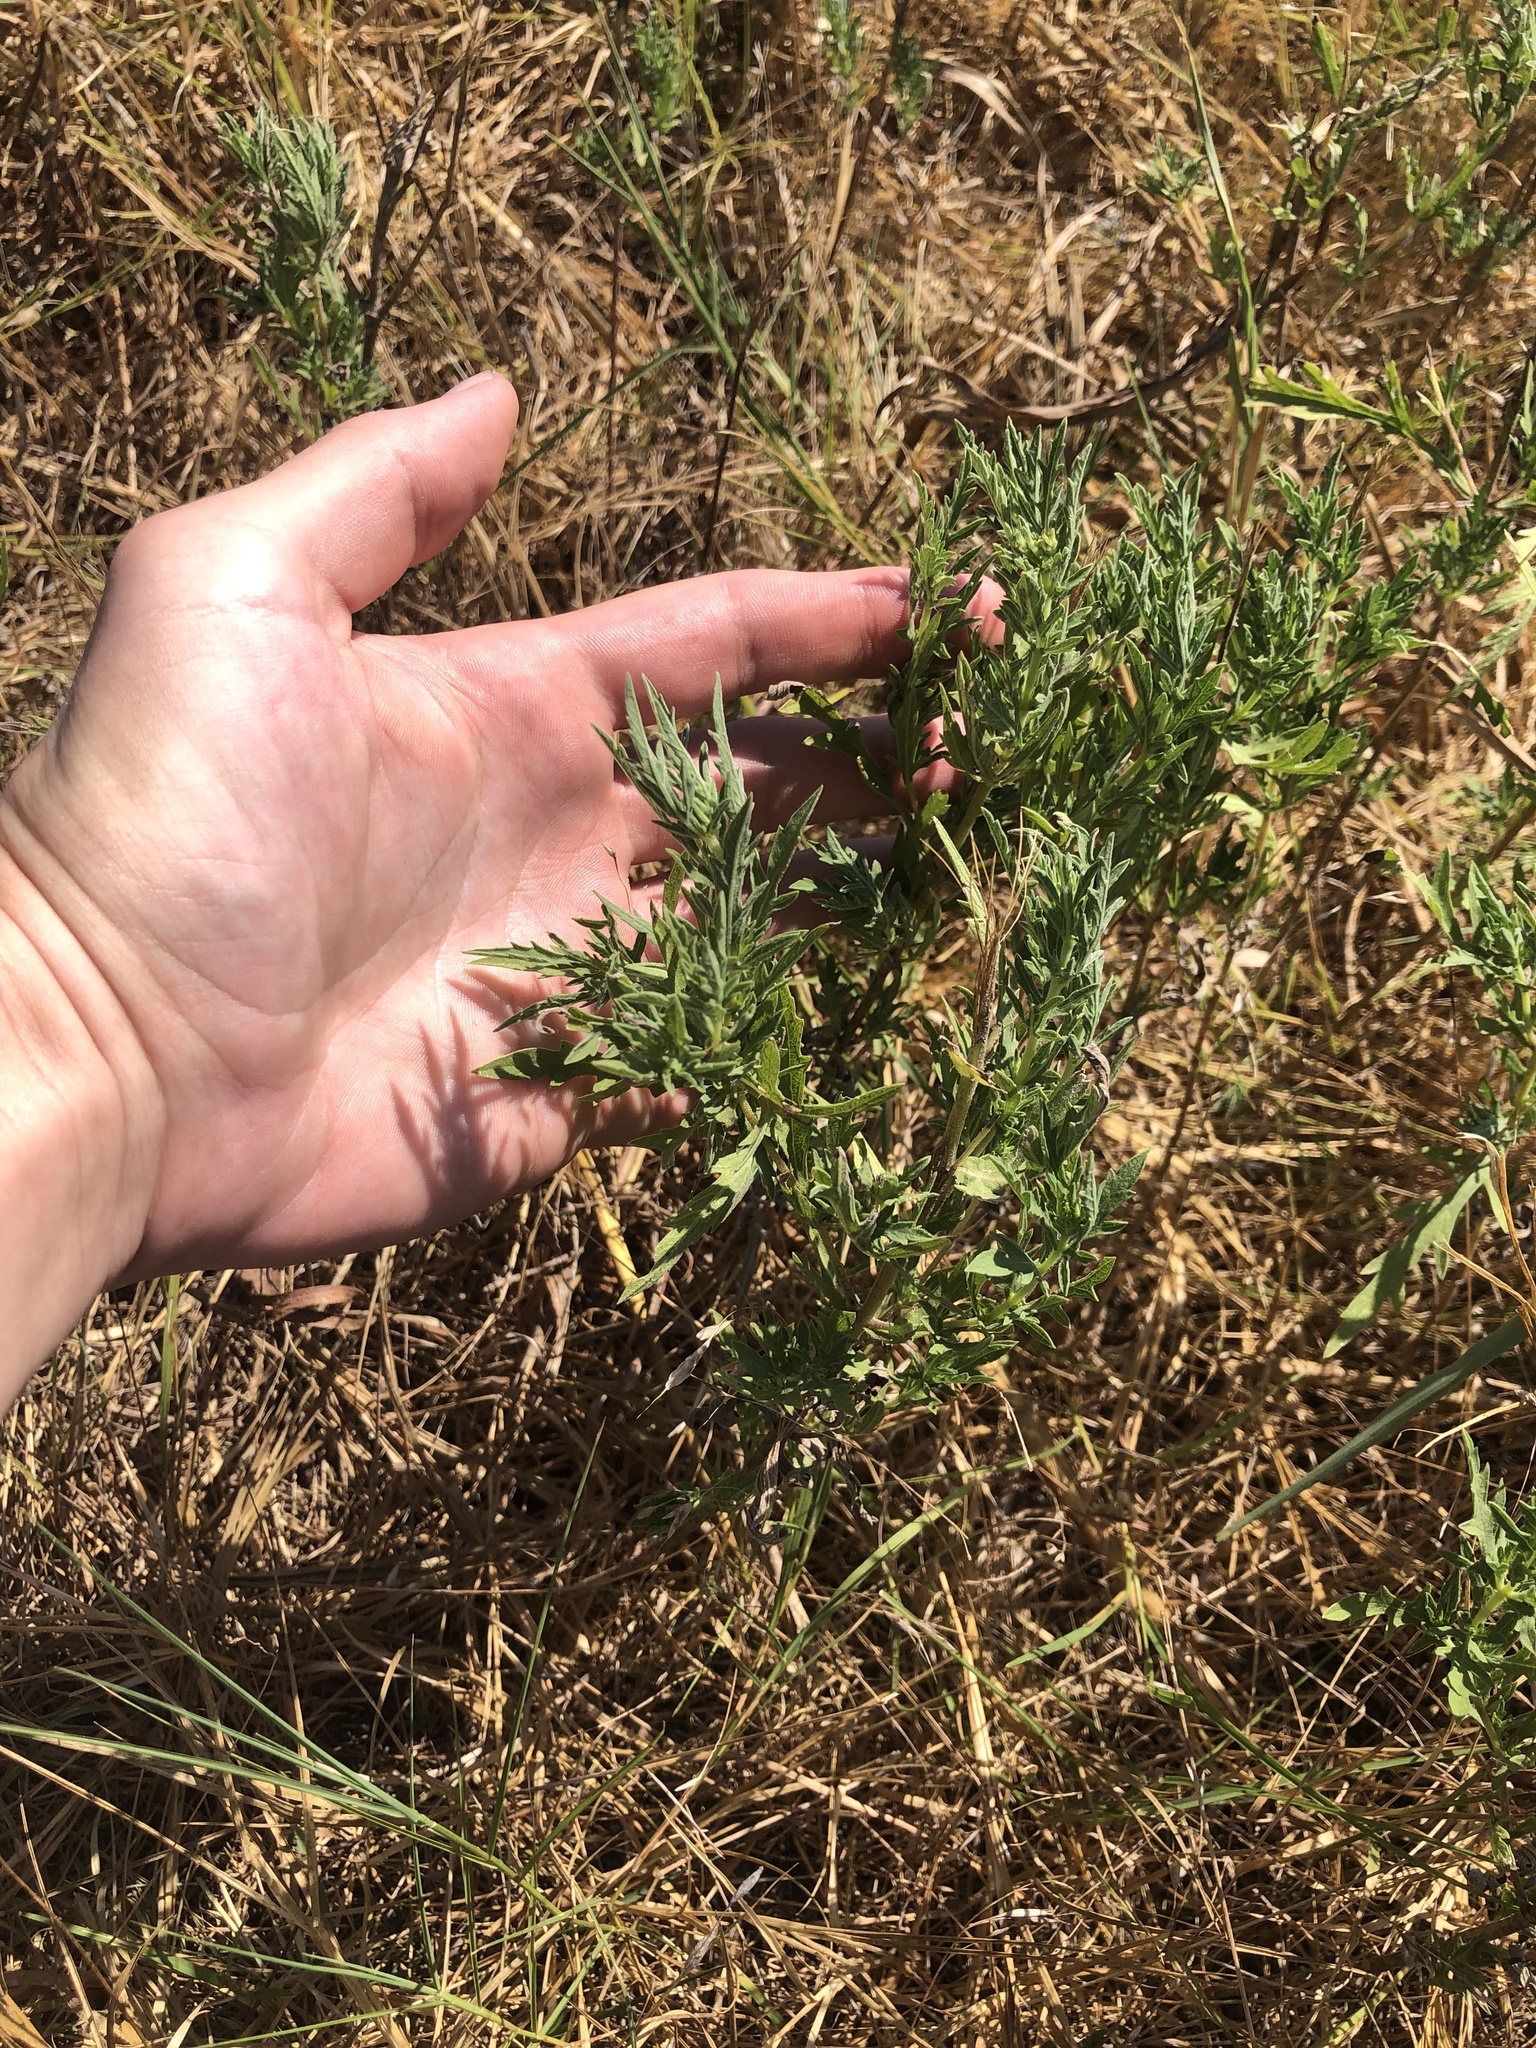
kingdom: Plantae
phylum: Tracheophyta
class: Magnoliopsida
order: Asterales
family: Asteraceae
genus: Ambrosia
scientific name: Ambrosia psilostachya
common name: Perennial ragweed
